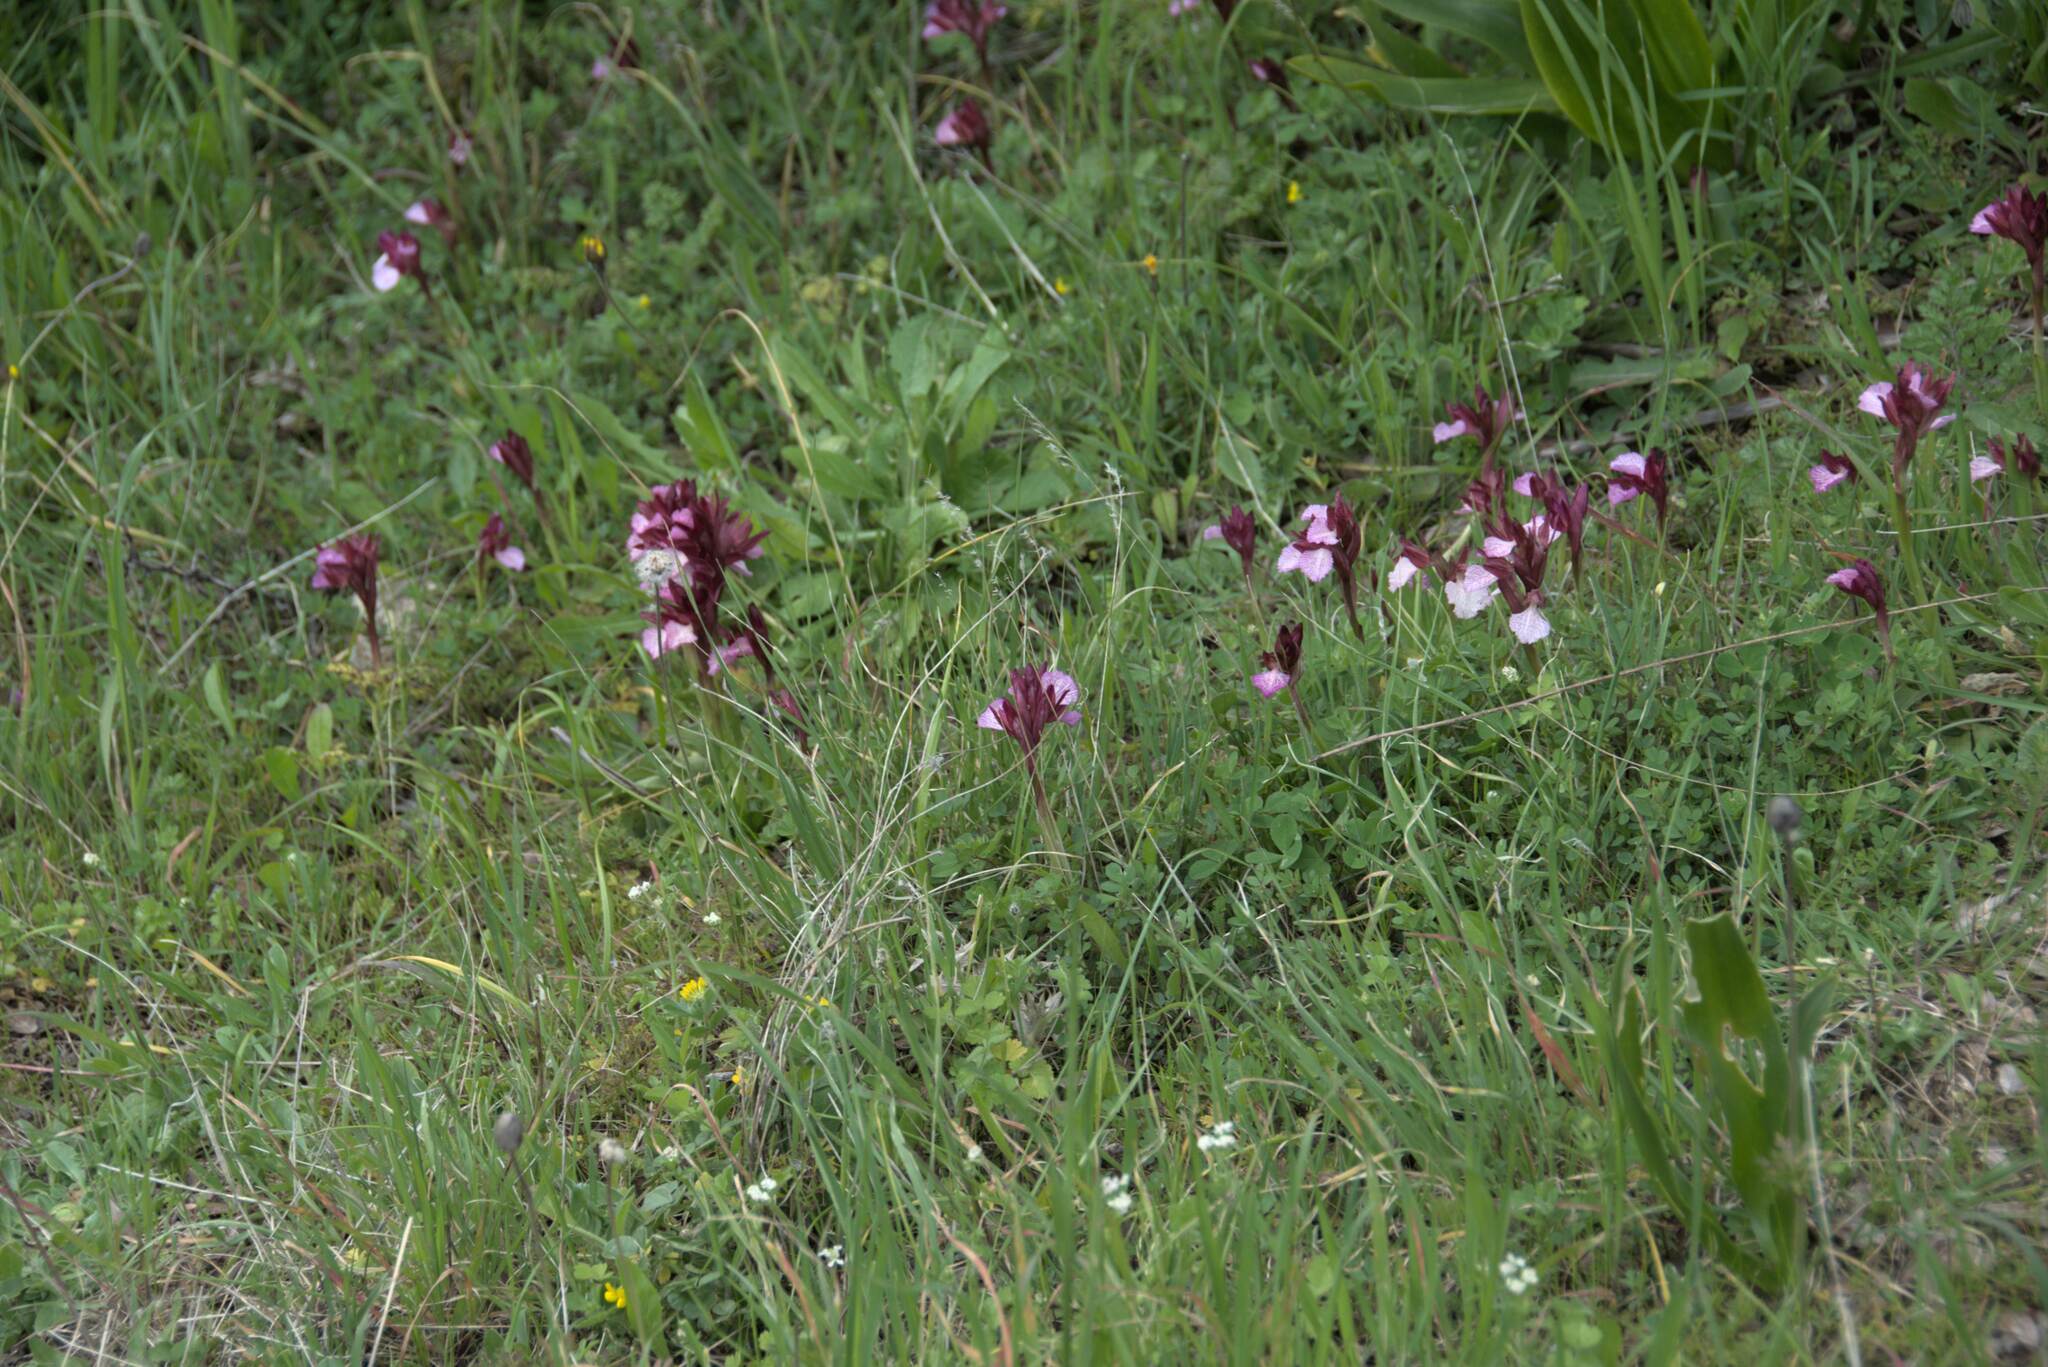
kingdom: Plantae
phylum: Tracheophyta
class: Liliopsida
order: Asparagales
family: Orchidaceae
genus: Anacamptis
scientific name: Anacamptis papilionacea
